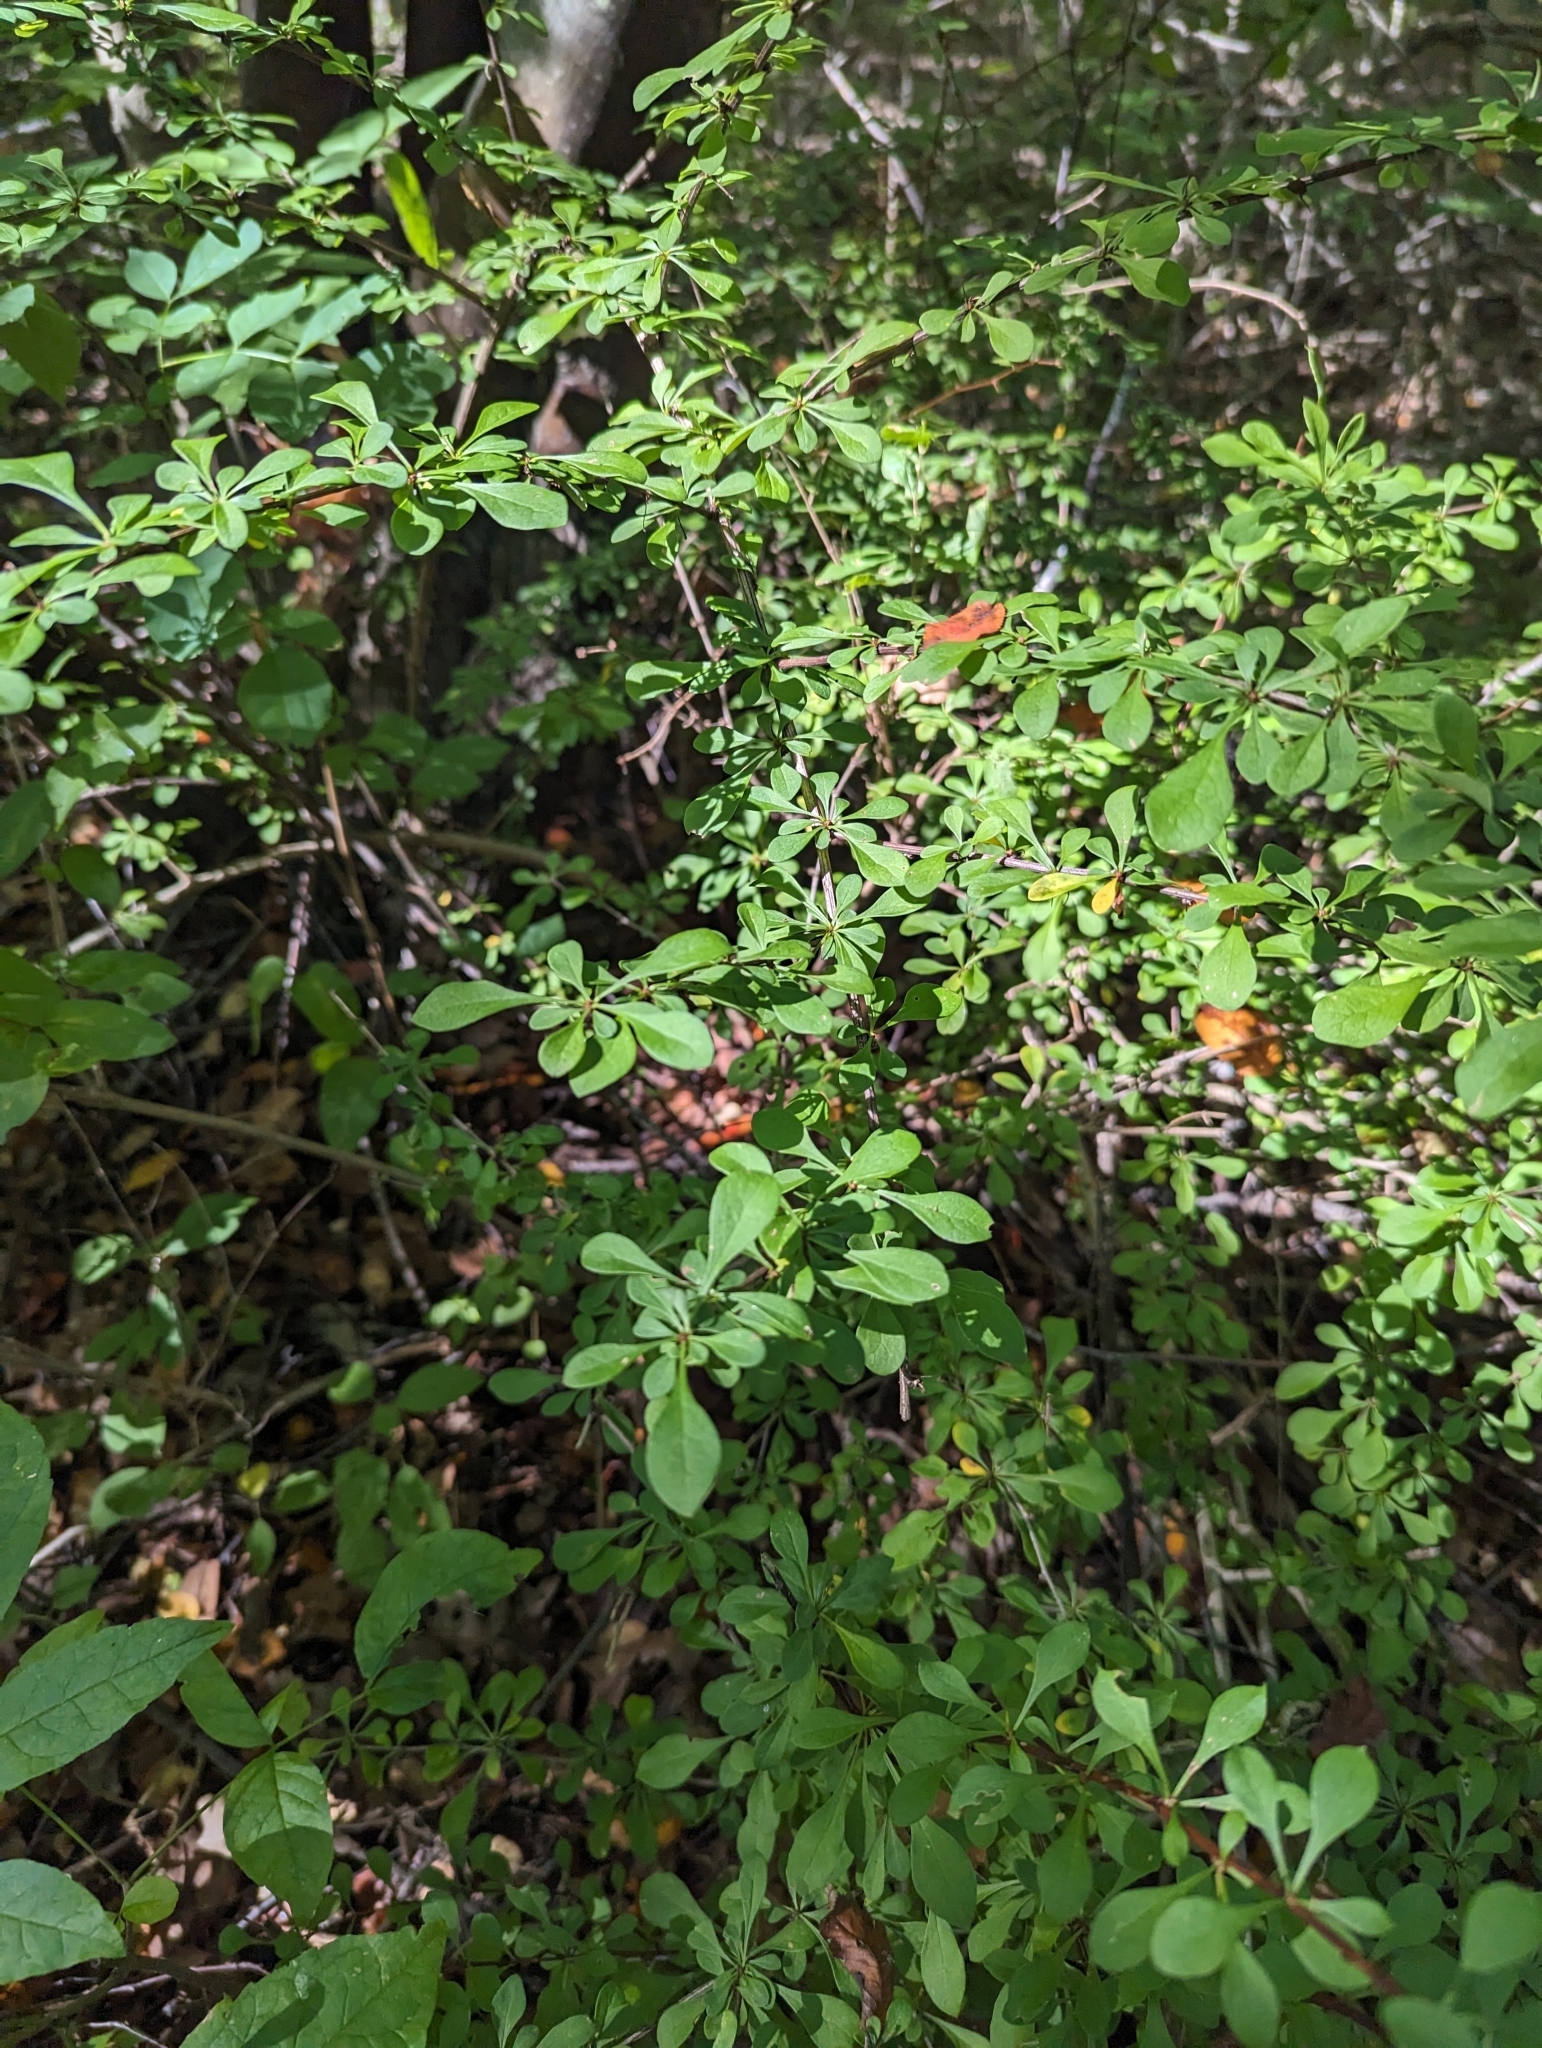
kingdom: Plantae
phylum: Tracheophyta
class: Magnoliopsida
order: Ranunculales
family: Berberidaceae
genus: Berberis
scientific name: Berberis thunbergii
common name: Japanese barberry
